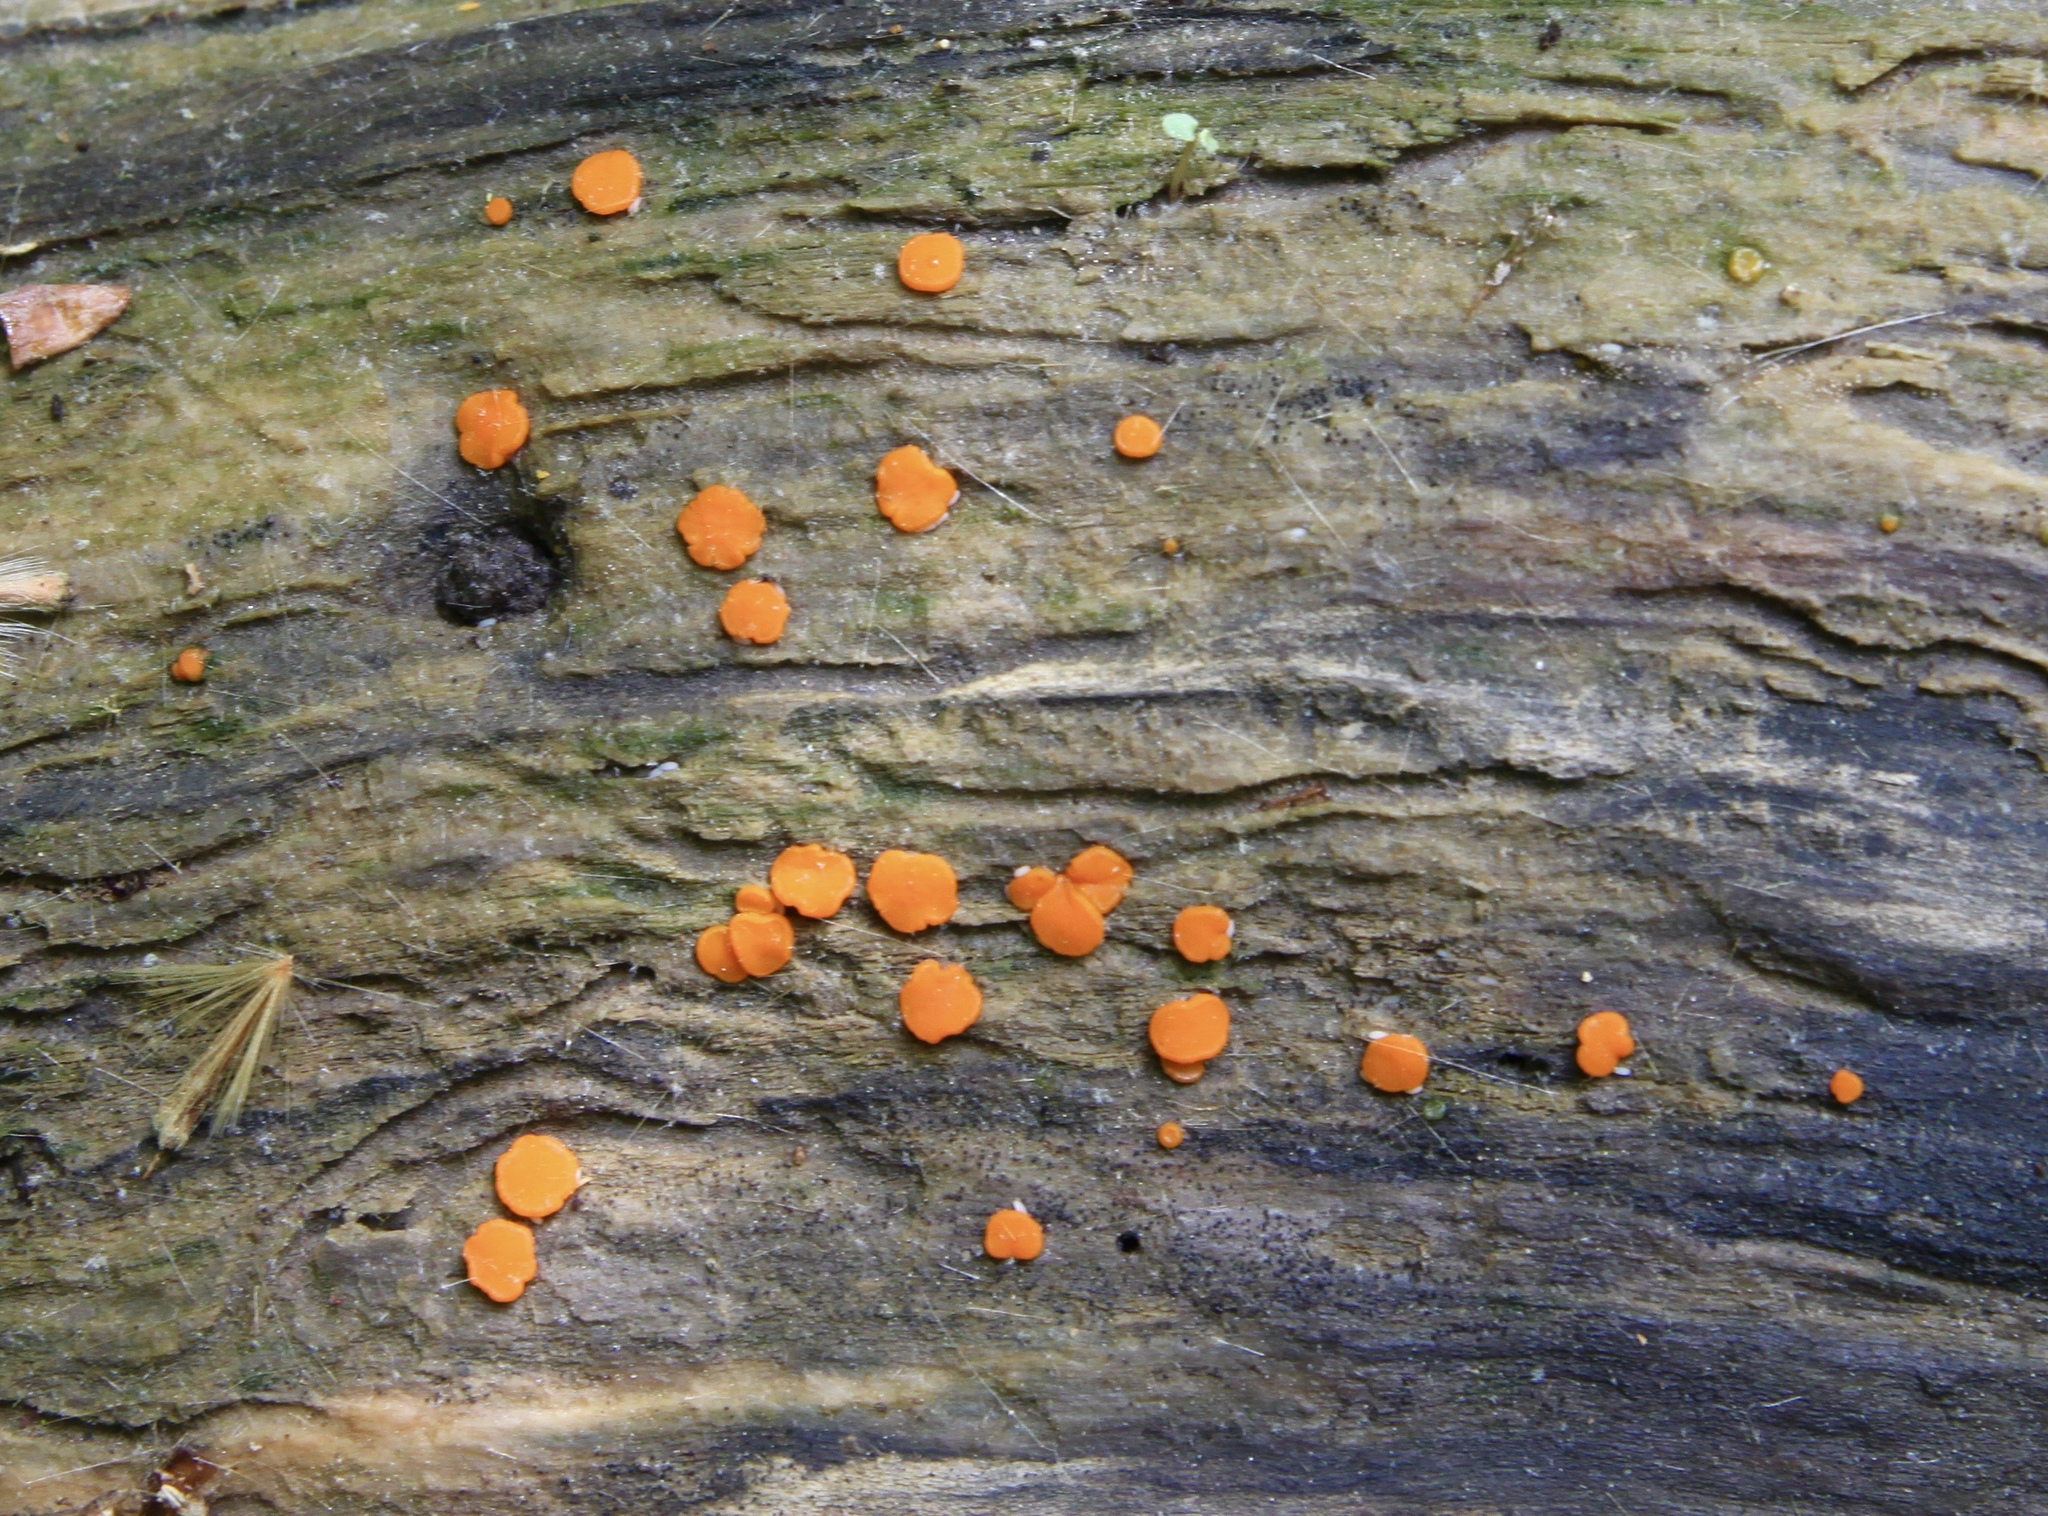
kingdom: Fungi
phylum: Ascomycota
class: Pezizomycetes
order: Pezizales
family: Pyronemataceae
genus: Miladina
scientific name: Miladina lecithina
